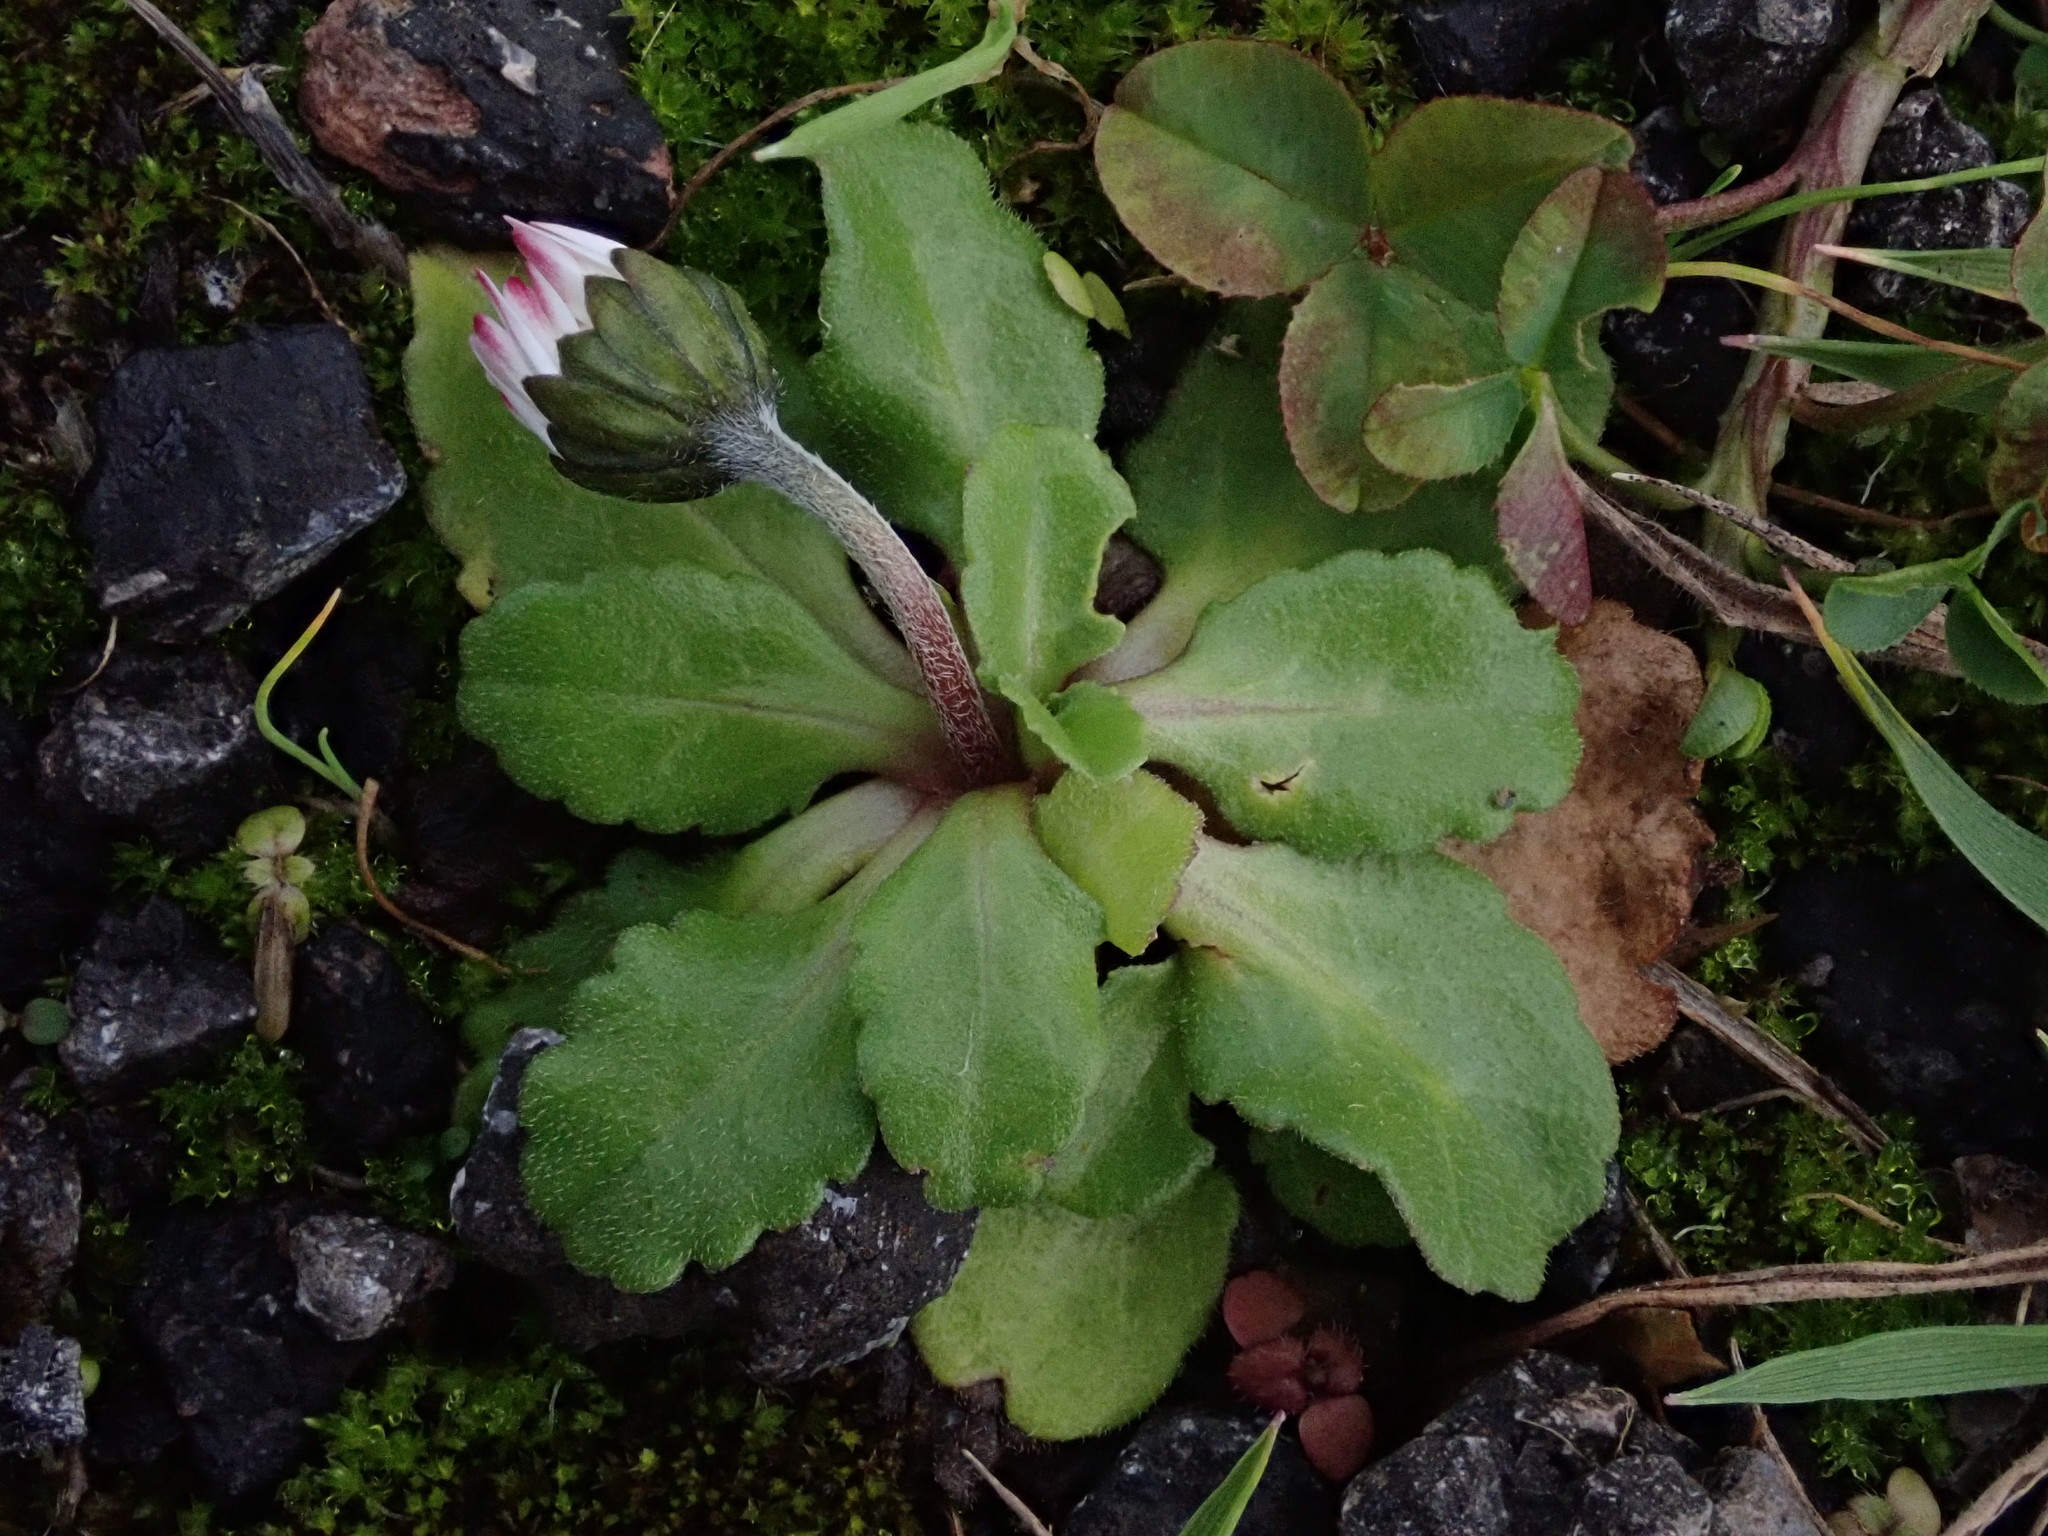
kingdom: Plantae
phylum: Tracheophyta
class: Magnoliopsida
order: Asterales
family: Asteraceae
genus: Bellis
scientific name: Bellis perennis
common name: Lawndaisy
